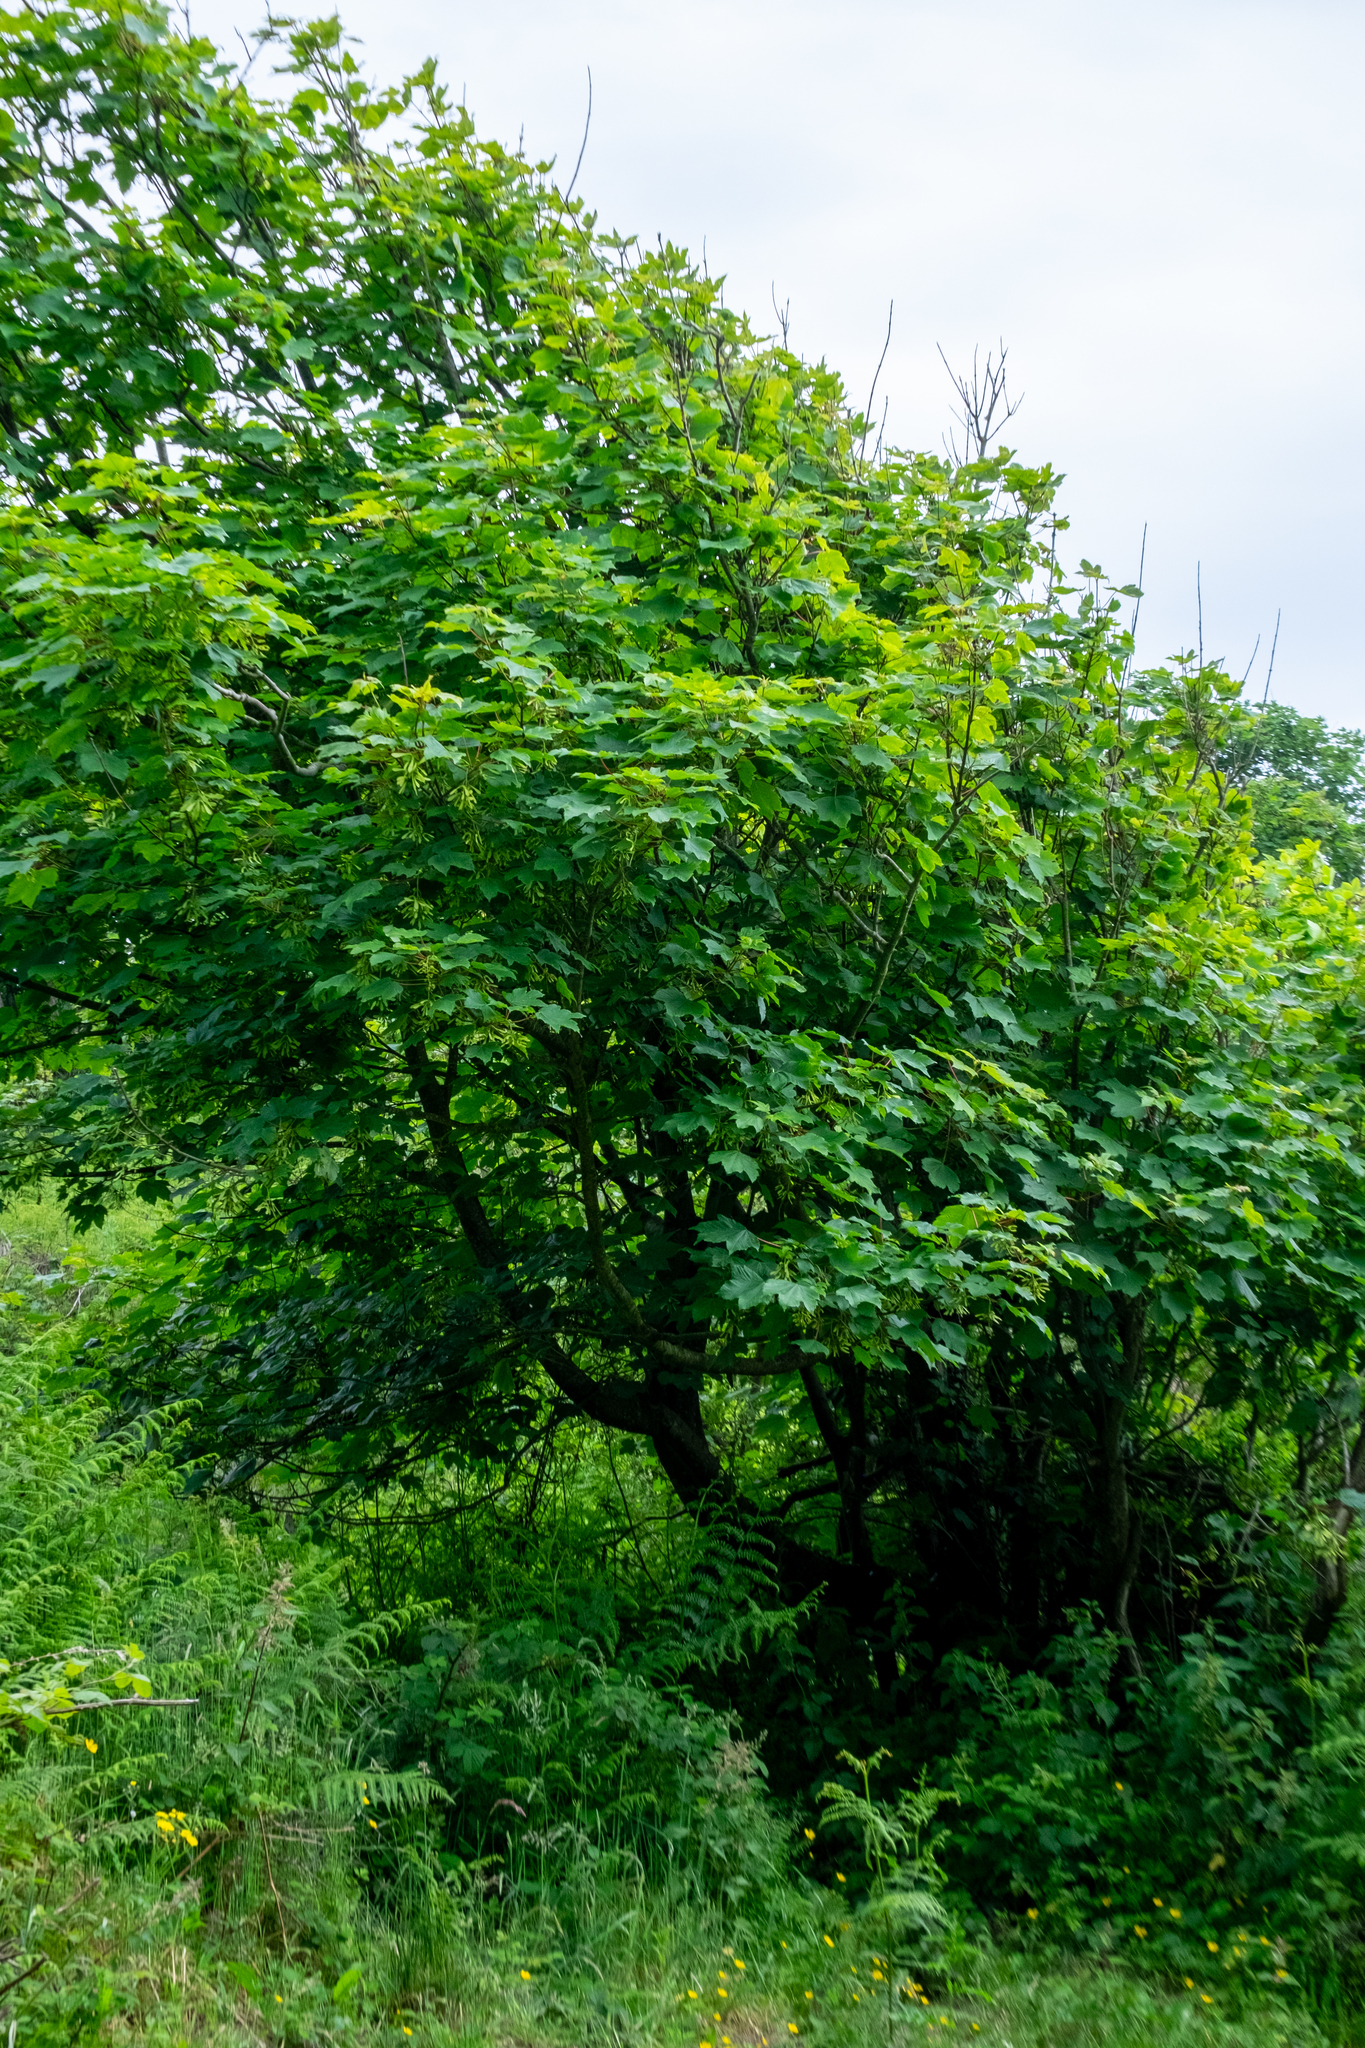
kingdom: Plantae
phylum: Tracheophyta
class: Magnoliopsida
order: Sapindales
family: Sapindaceae
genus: Acer
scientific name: Acer pseudoplatanus
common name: Sycamore
